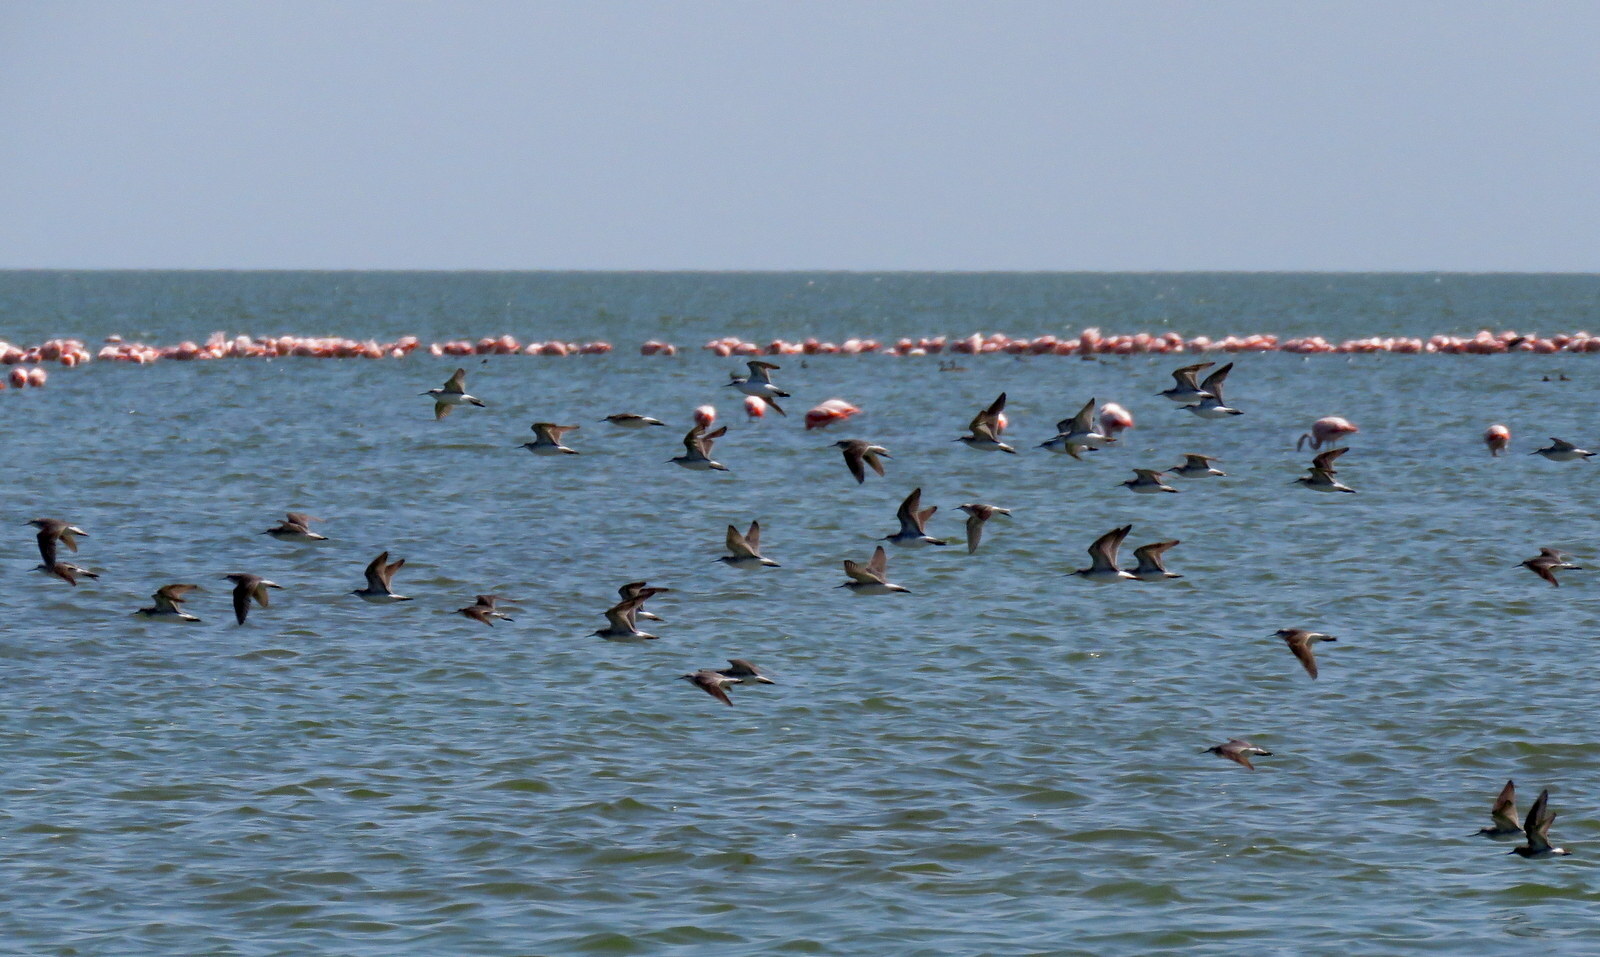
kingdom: Animalia
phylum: Chordata
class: Aves
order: Charadriiformes
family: Scolopacidae
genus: Phalaropus
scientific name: Phalaropus tricolor
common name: Wilson's phalarope
